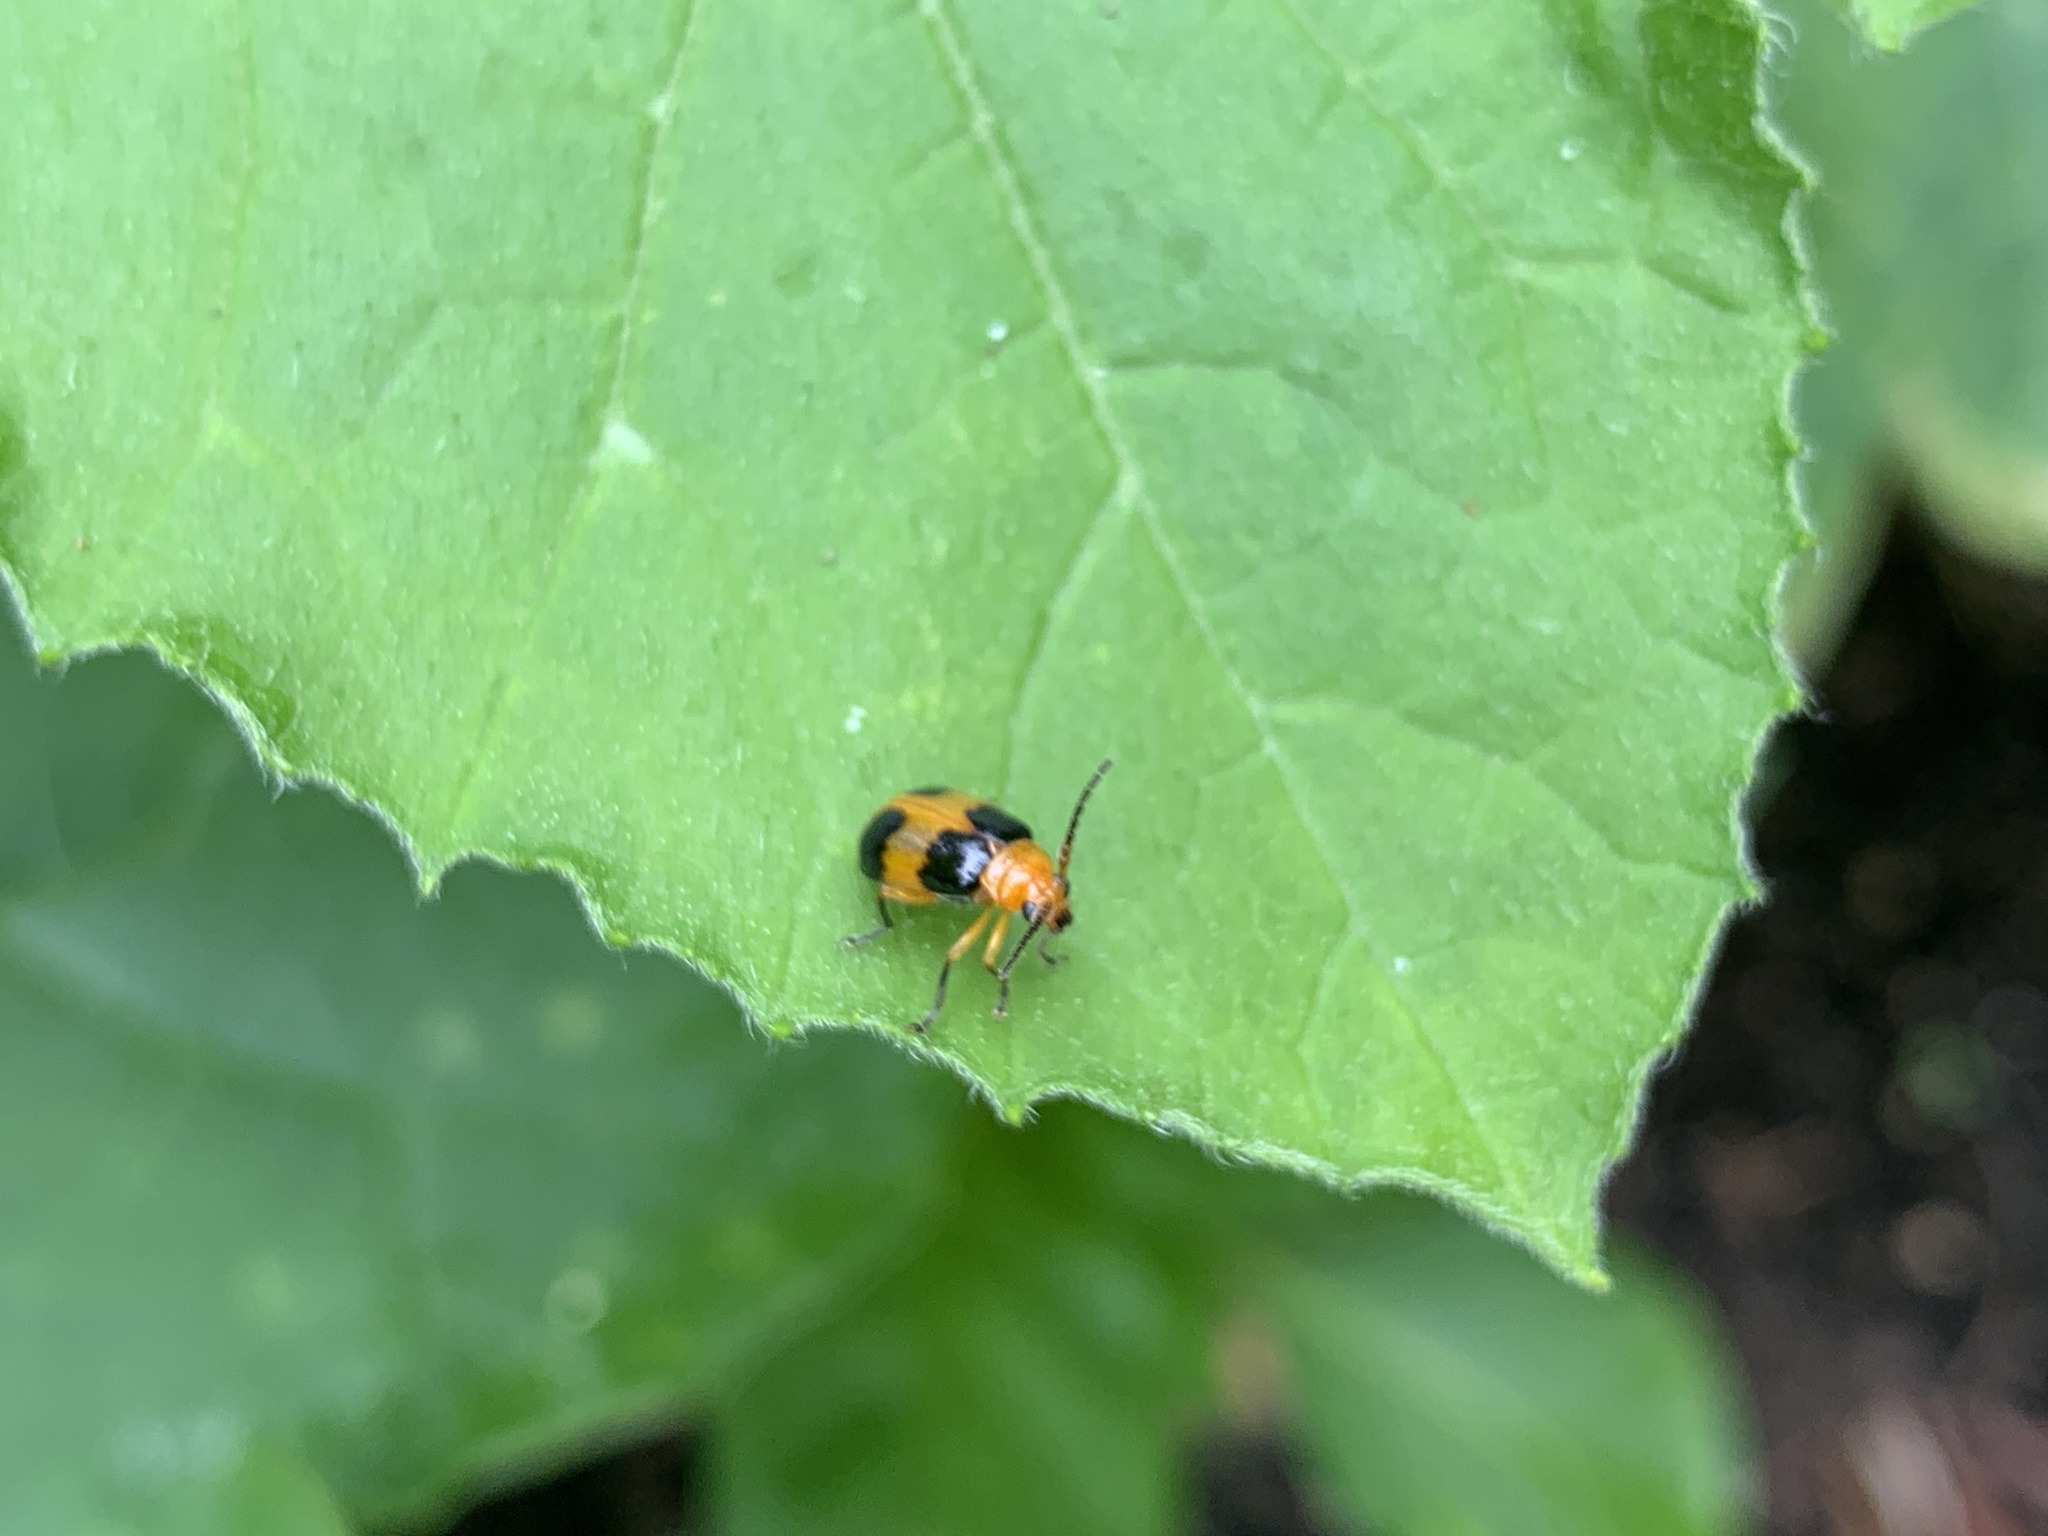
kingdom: Animalia
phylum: Arthropoda
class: Insecta
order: Coleoptera
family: Chrysomelidae
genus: Aulacophora
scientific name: Aulacophora
